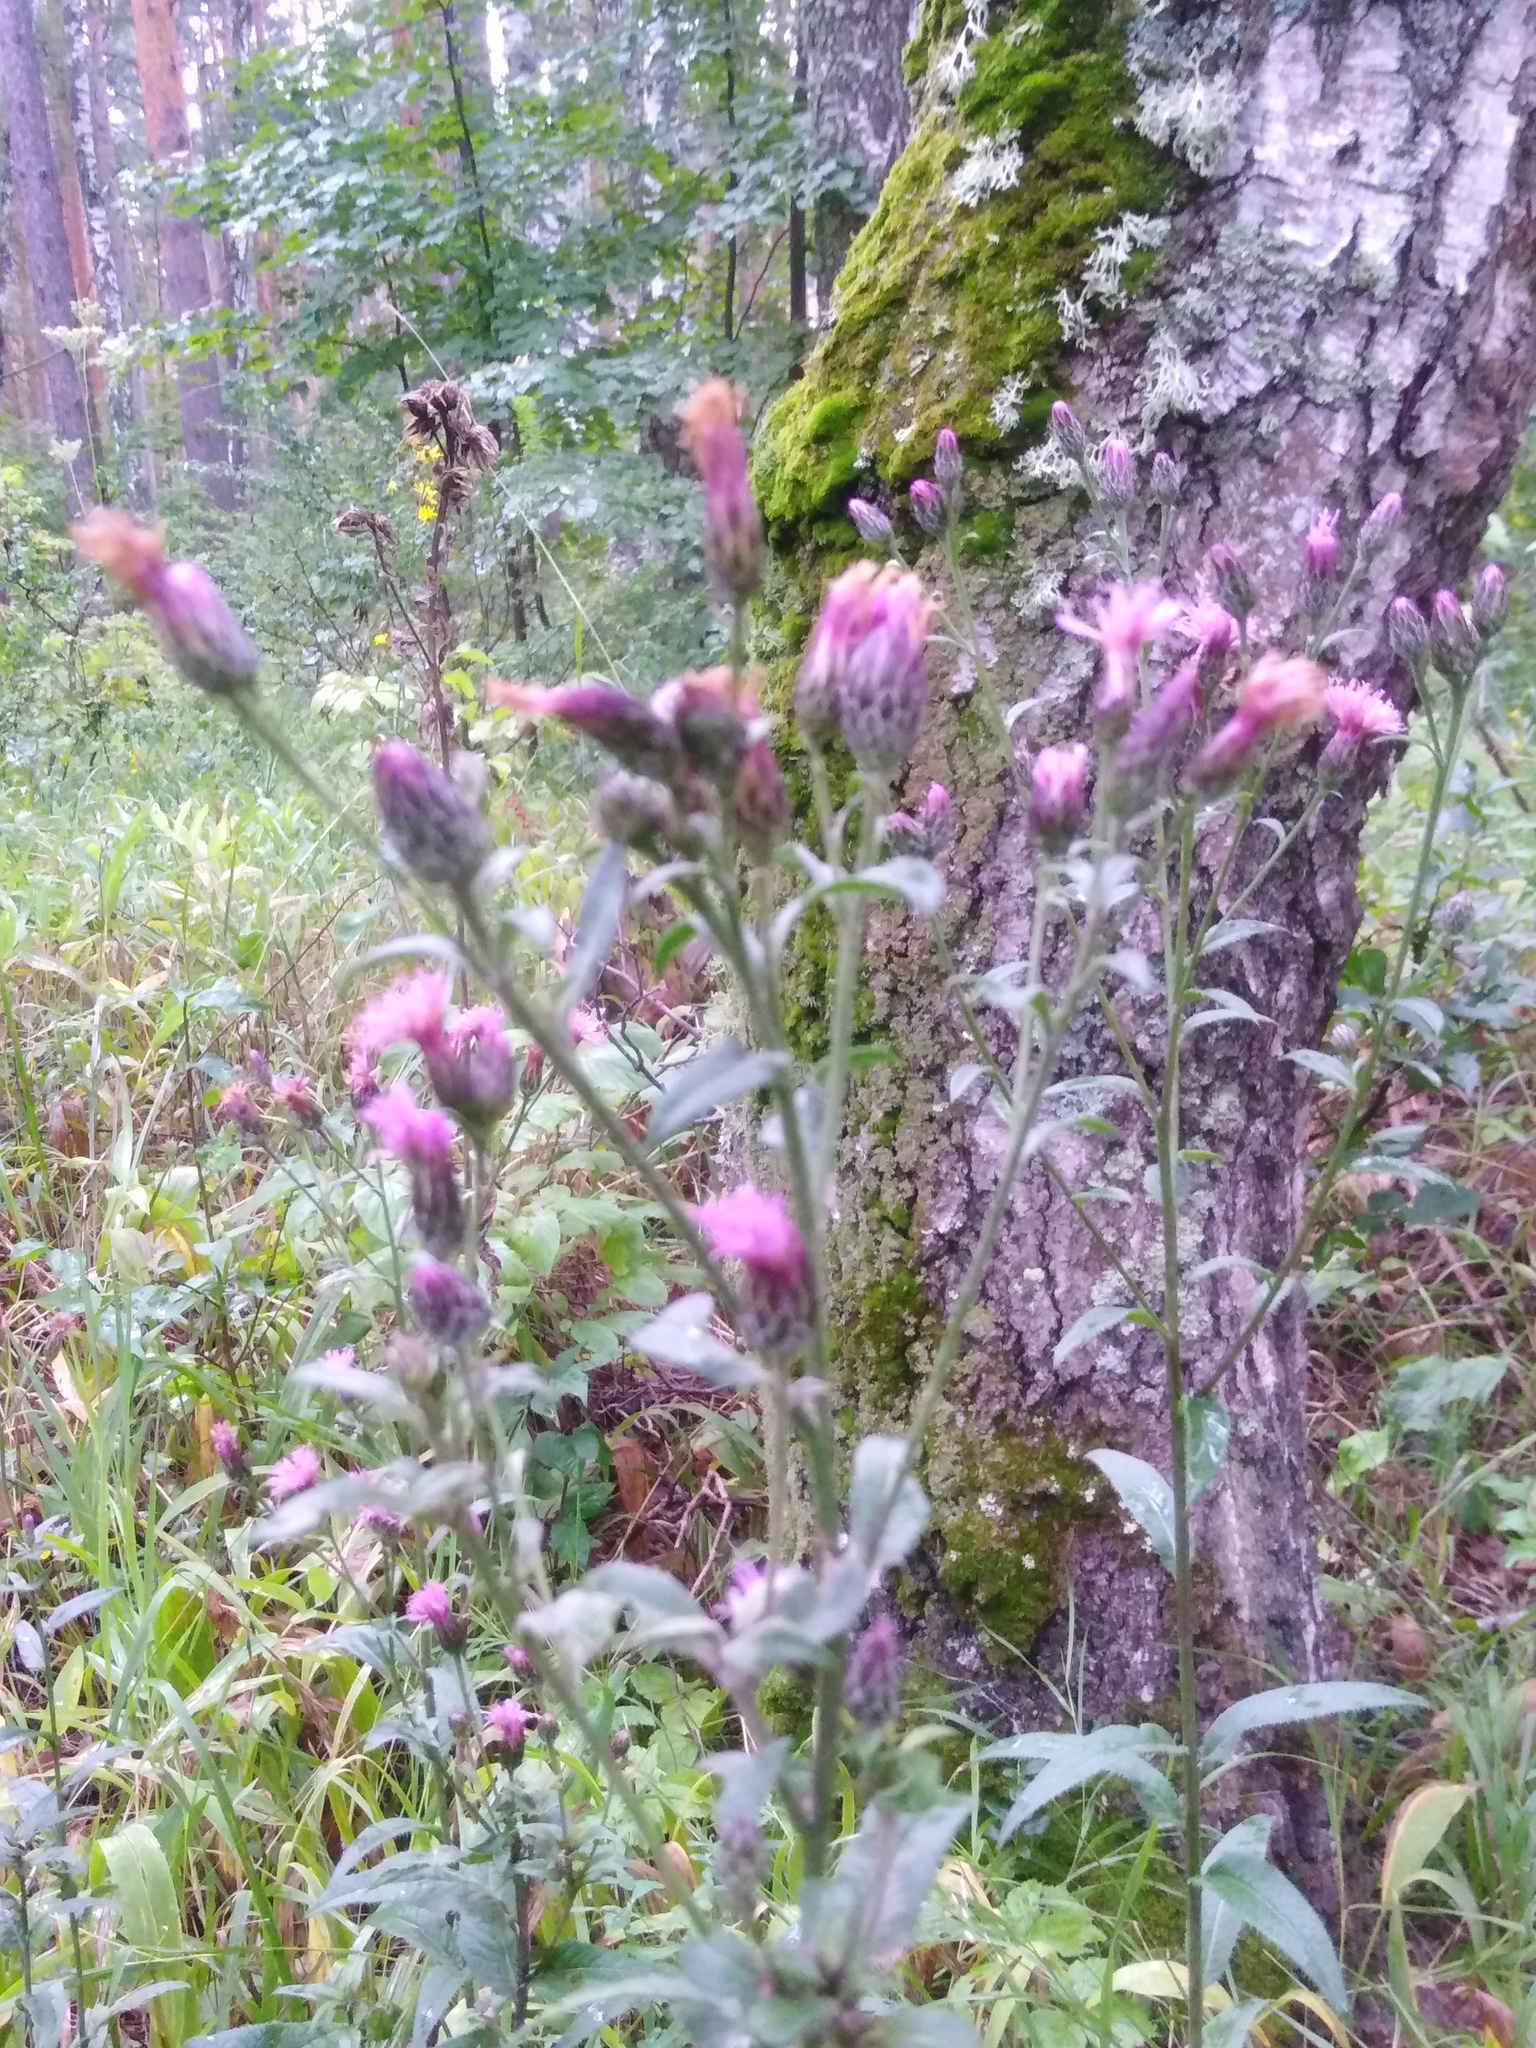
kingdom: Plantae
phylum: Tracheophyta
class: Magnoliopsida
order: Asterales
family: Asteraceae
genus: Serratula
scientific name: Serratula tinctoria
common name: Saw-wort
